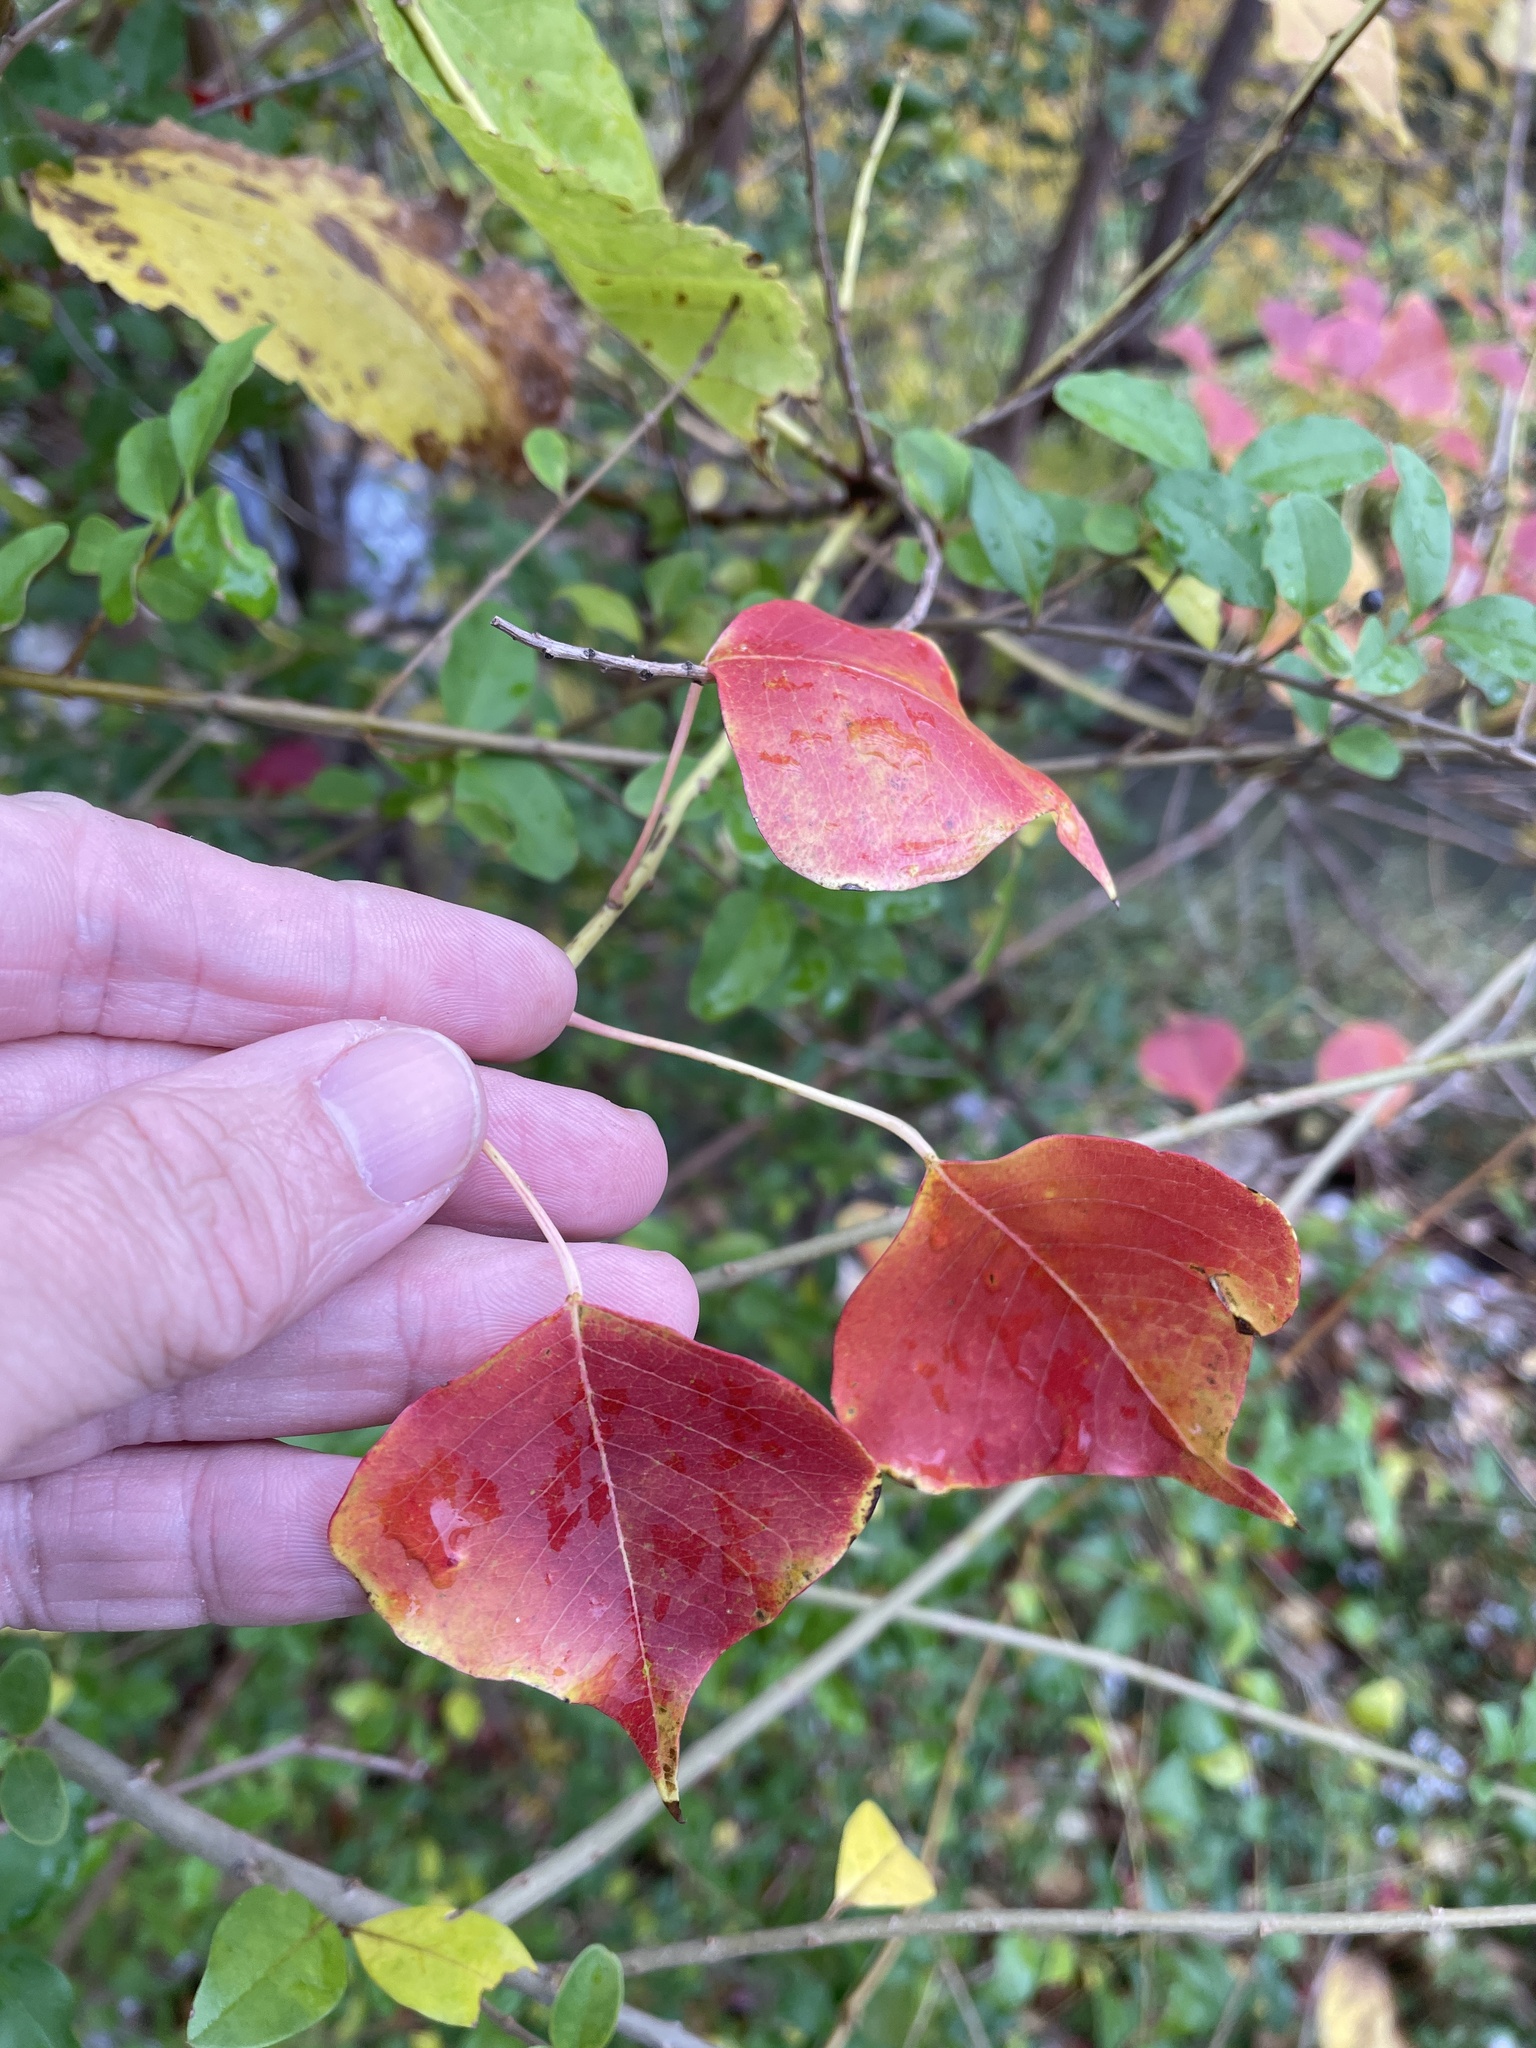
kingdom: Plantae
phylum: Tracheophyta
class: Magnoliopsida
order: Malpighiales
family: Euphorbiaceae
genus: Triadica
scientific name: Triadica sebifera
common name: Chinese tallow
